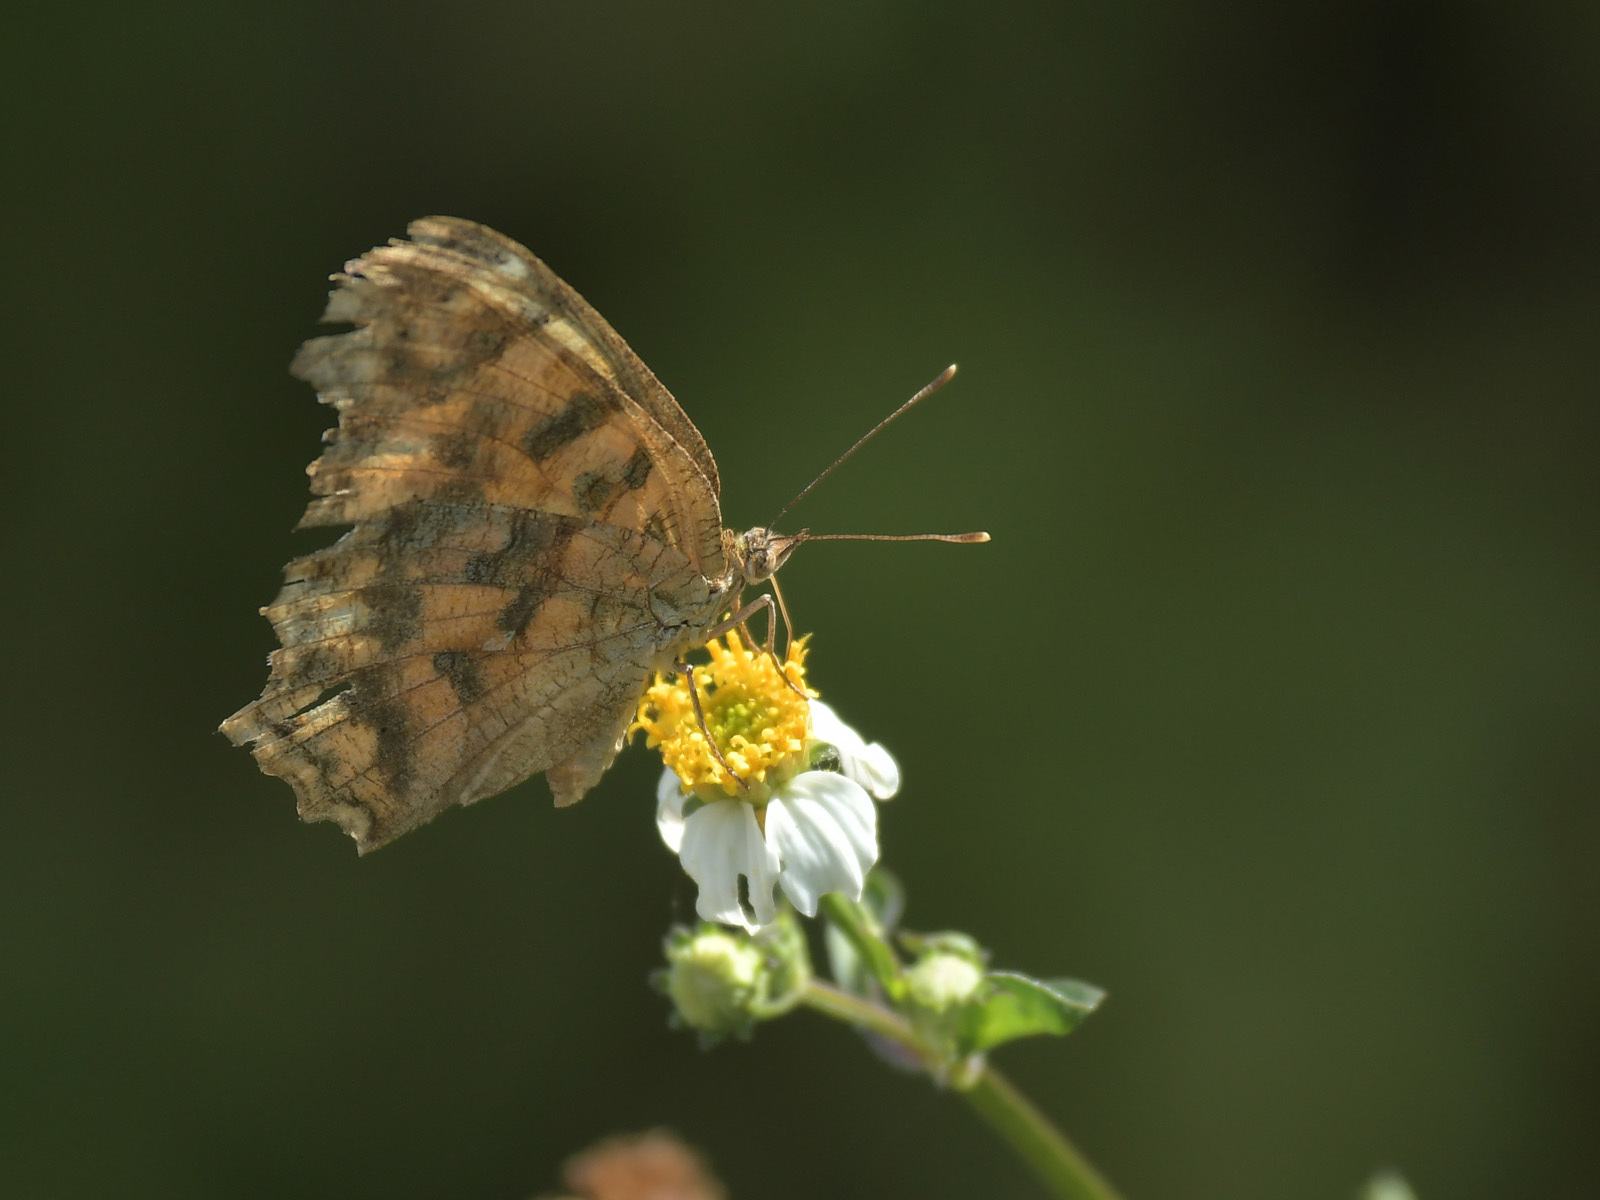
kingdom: Animalia
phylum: Arthropoda
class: Insecta
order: Lepidoptera
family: Nymphalidae
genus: Polygonia
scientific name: Polygonia c-aureum
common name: Asian comma
